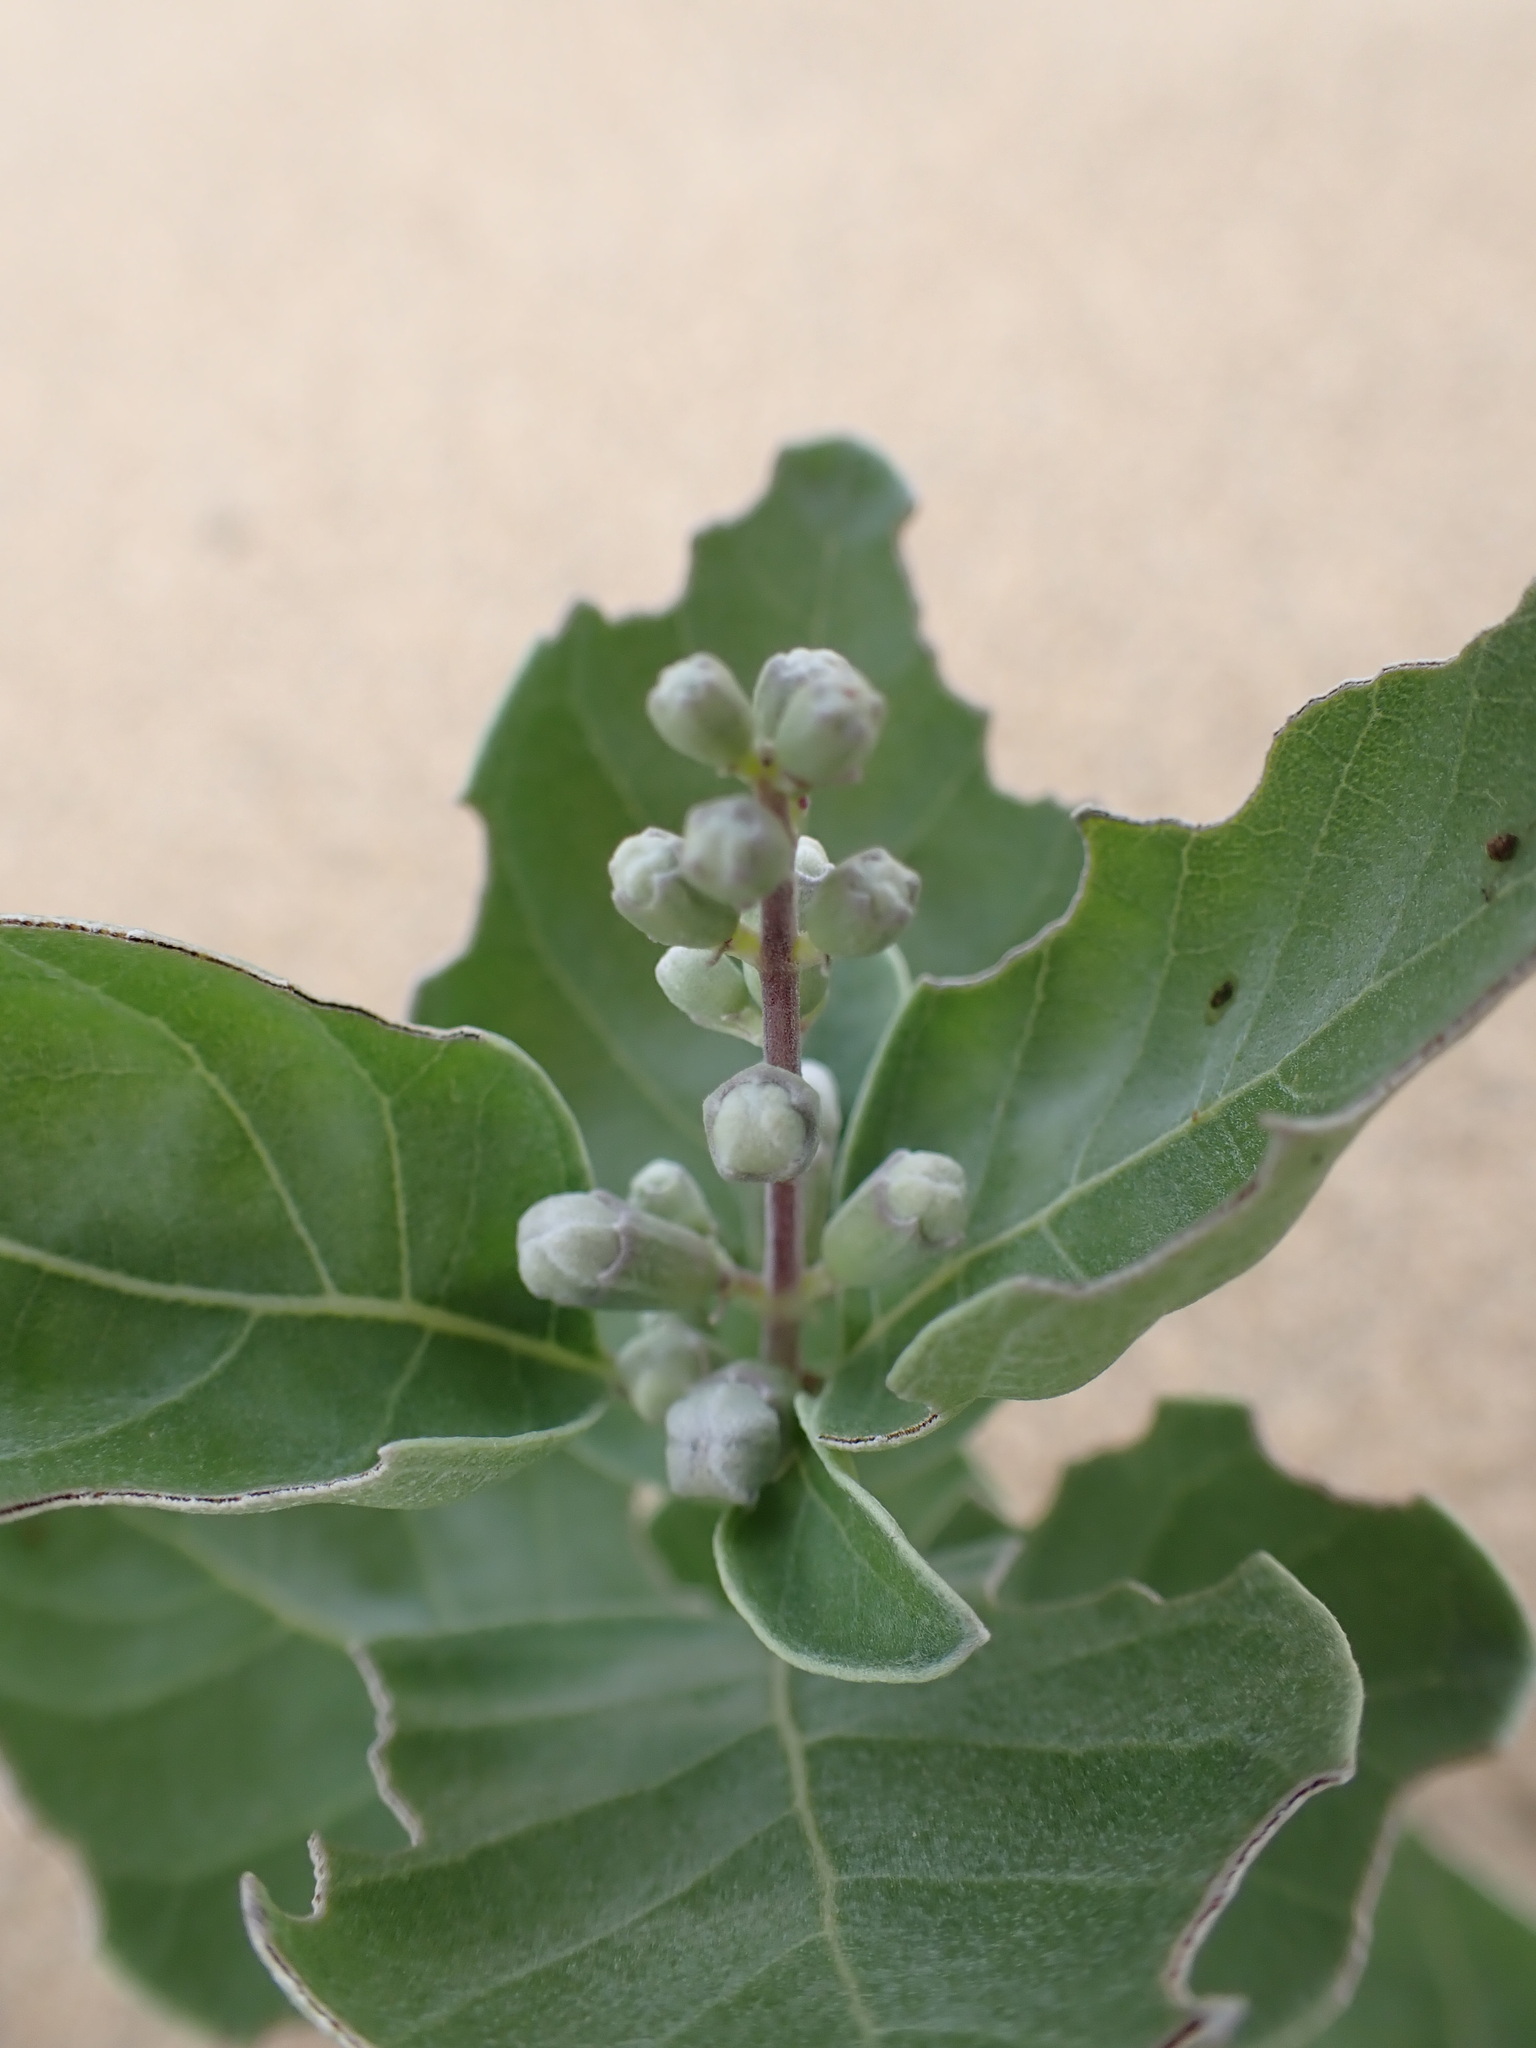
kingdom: Plantae
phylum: Tracheophyta
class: Magnoliopsida
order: Lamiales
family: Lamiaceae
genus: Vitex
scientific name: Vitex rotundifolia
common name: Beach vitex
